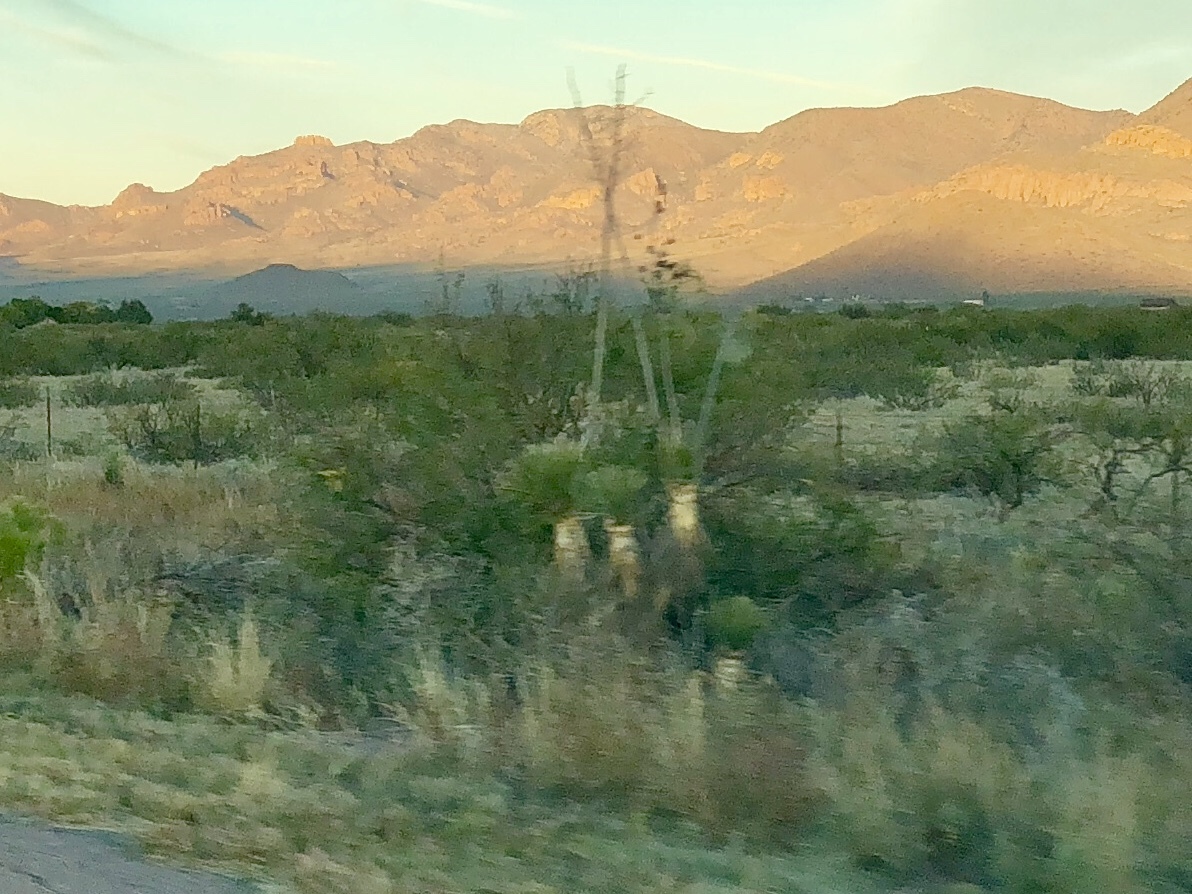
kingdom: Plantae
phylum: Tracheophyta
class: Liliopsida
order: Asparagales
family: Asparagaceae
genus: Yucca
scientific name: Yucca elata
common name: Palmella
